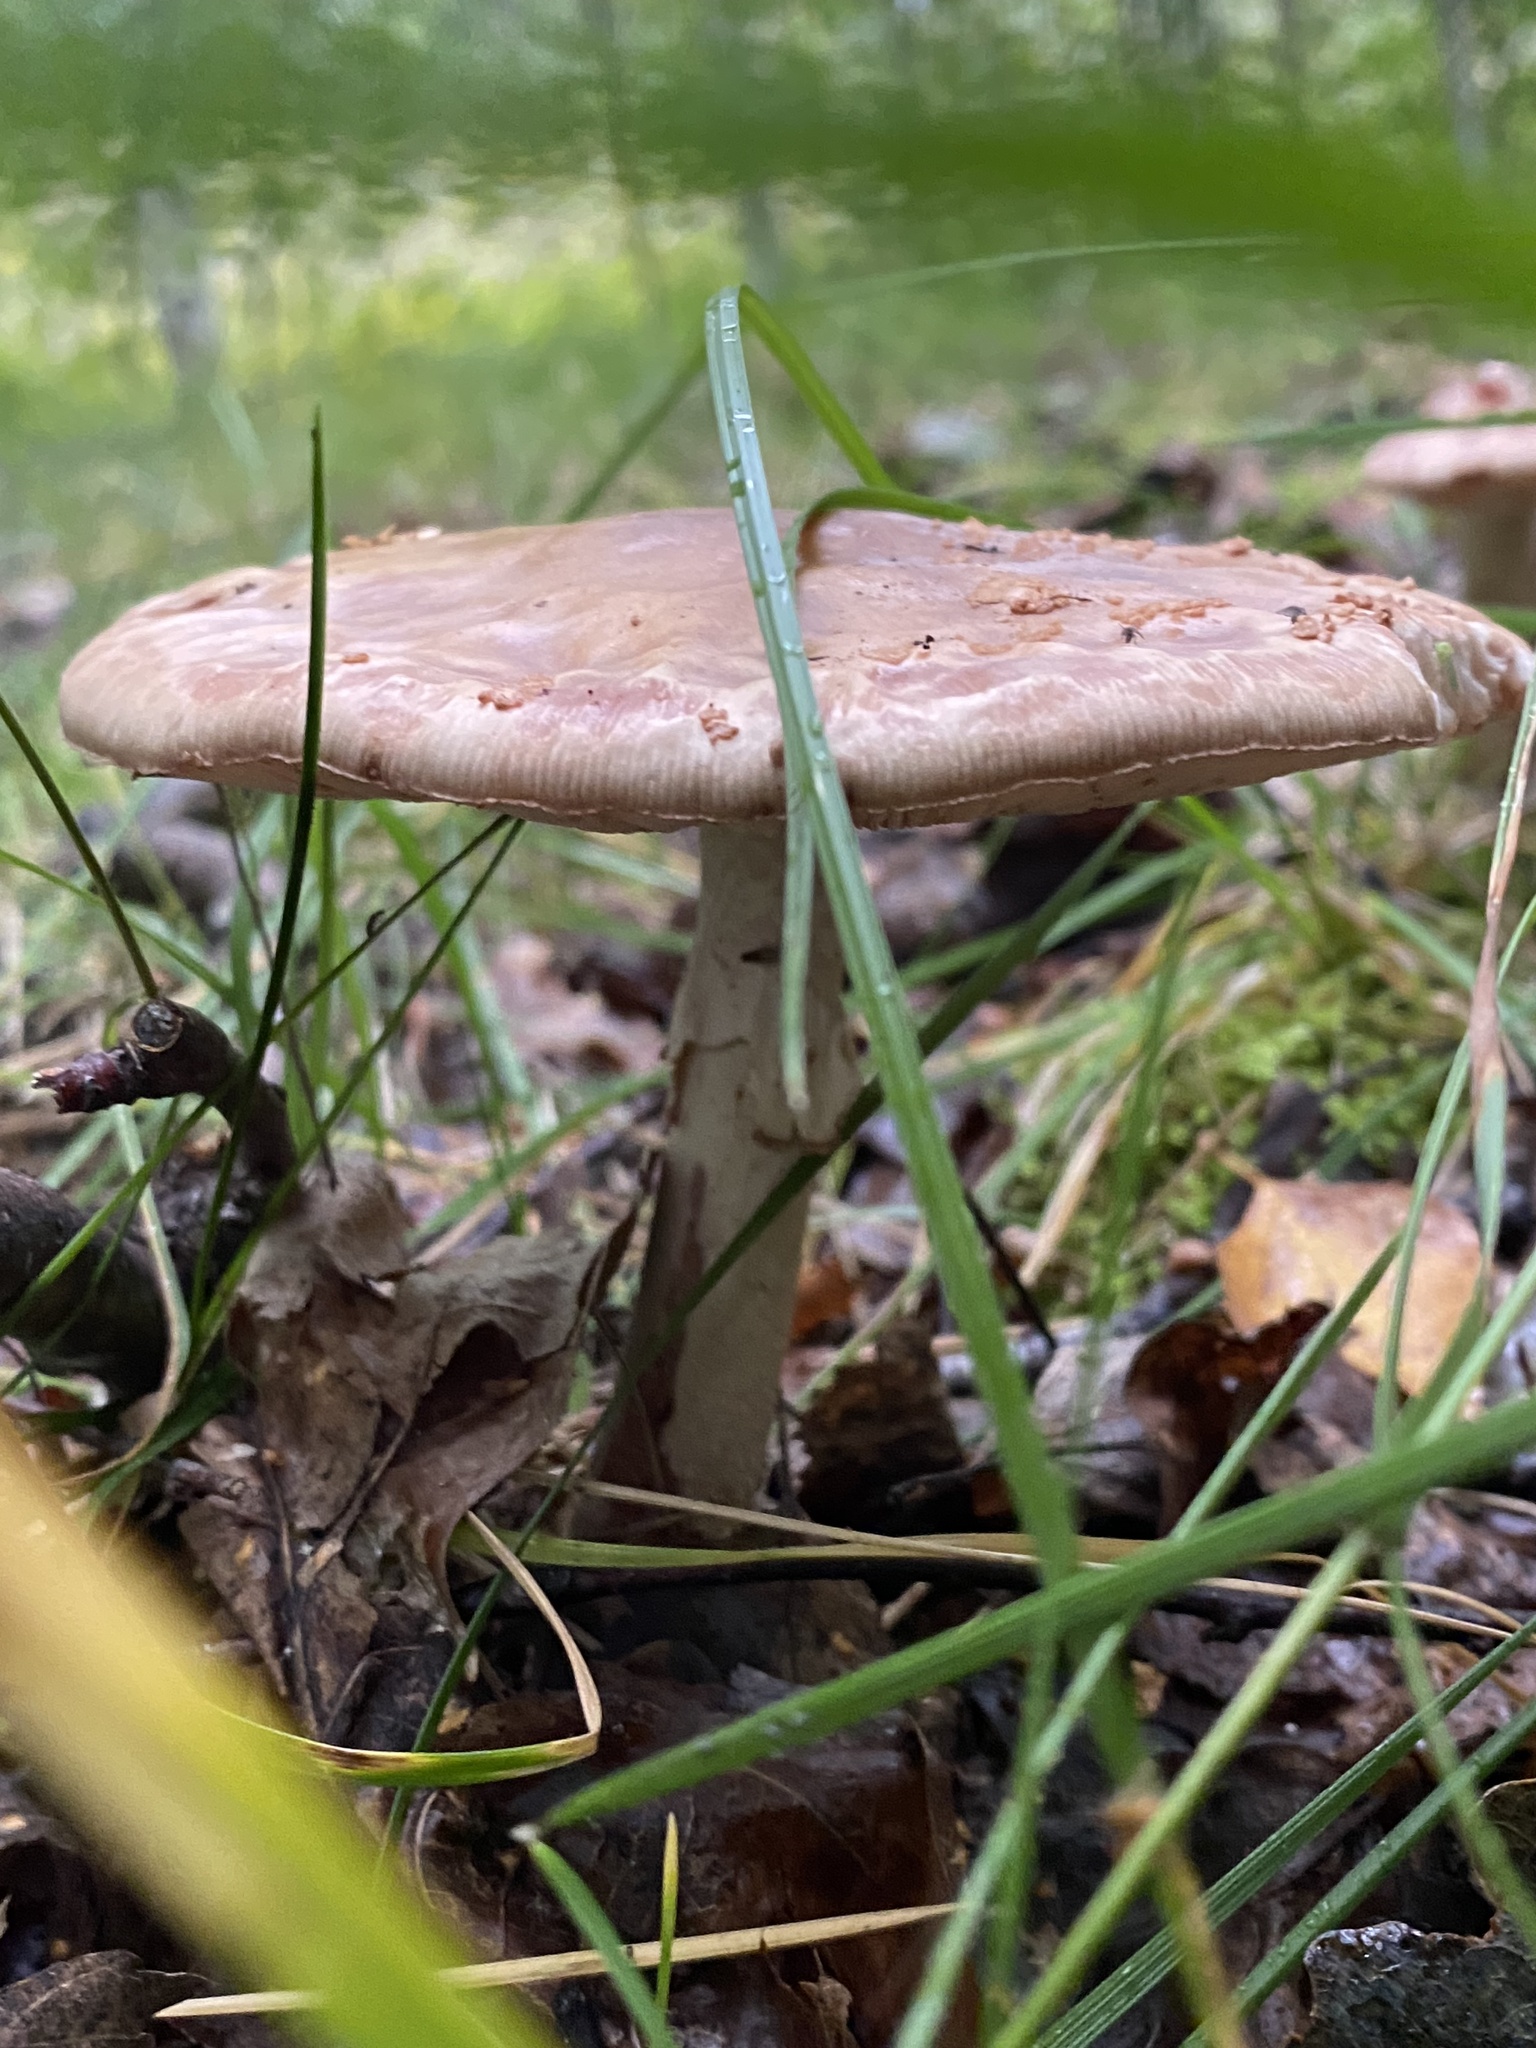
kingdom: Fungi
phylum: Basidiomycota
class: Agaricomycetes
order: Agaricales
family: Amanitaceae
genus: Amanita
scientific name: Amanita rubescens
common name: Blusher
